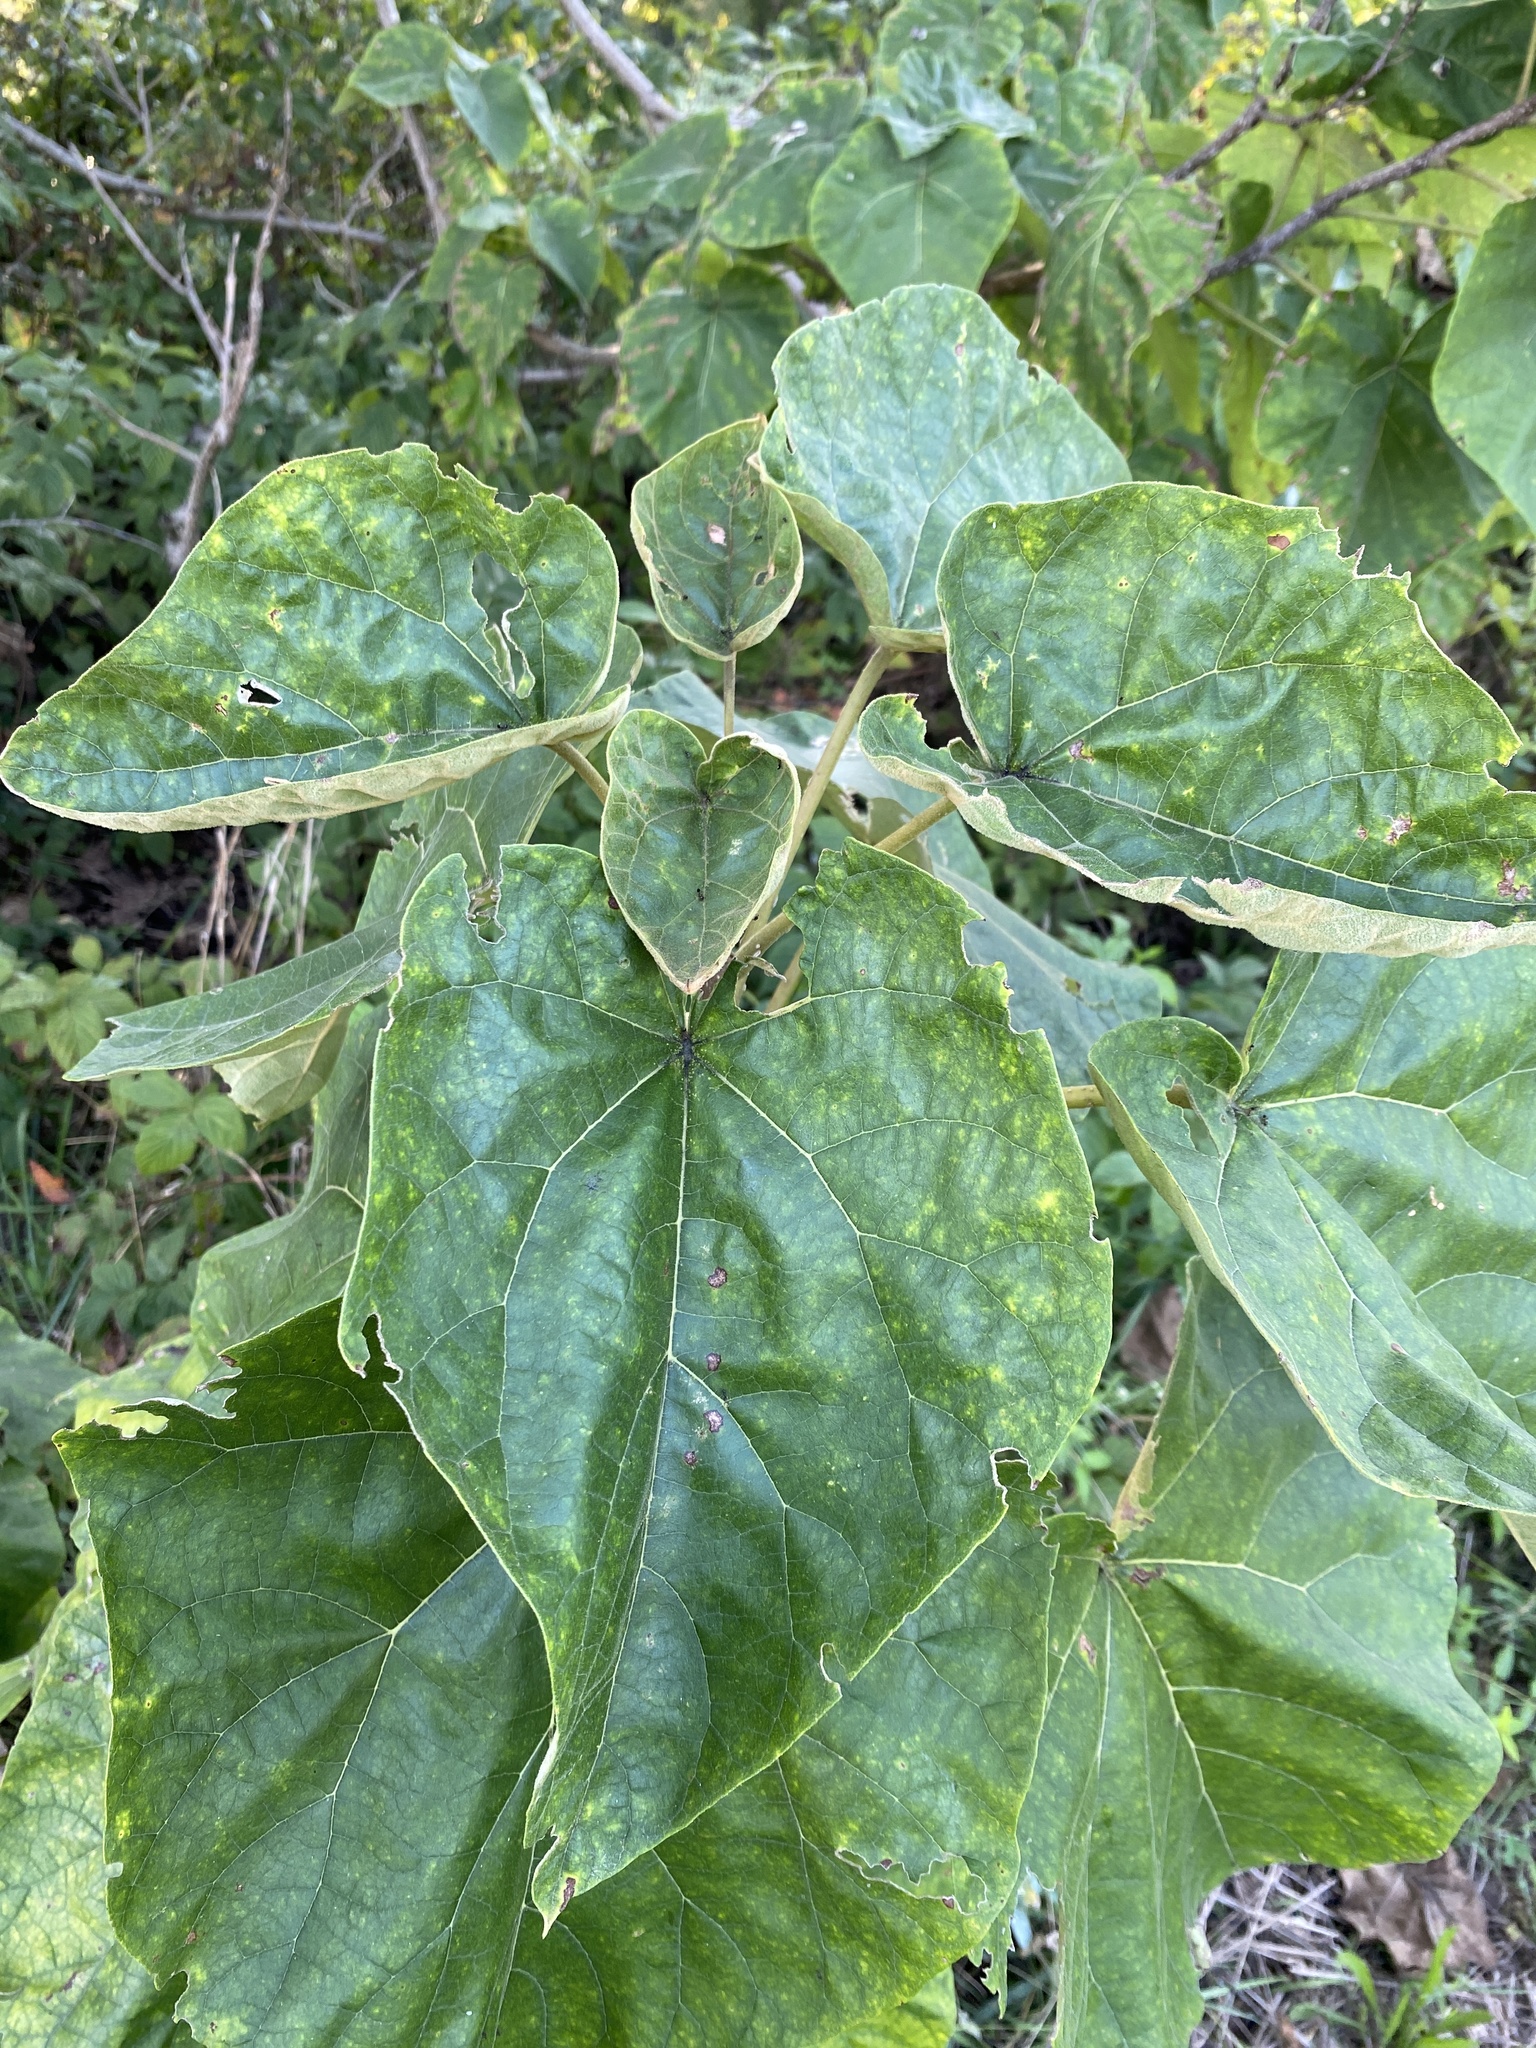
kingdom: Plantae
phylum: Tracheophyta
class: Magnoliopsida
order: Lamiales
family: Paulowniaceae
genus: Paulownia
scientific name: Paulownia tomentosa
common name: Foxglove-tree
